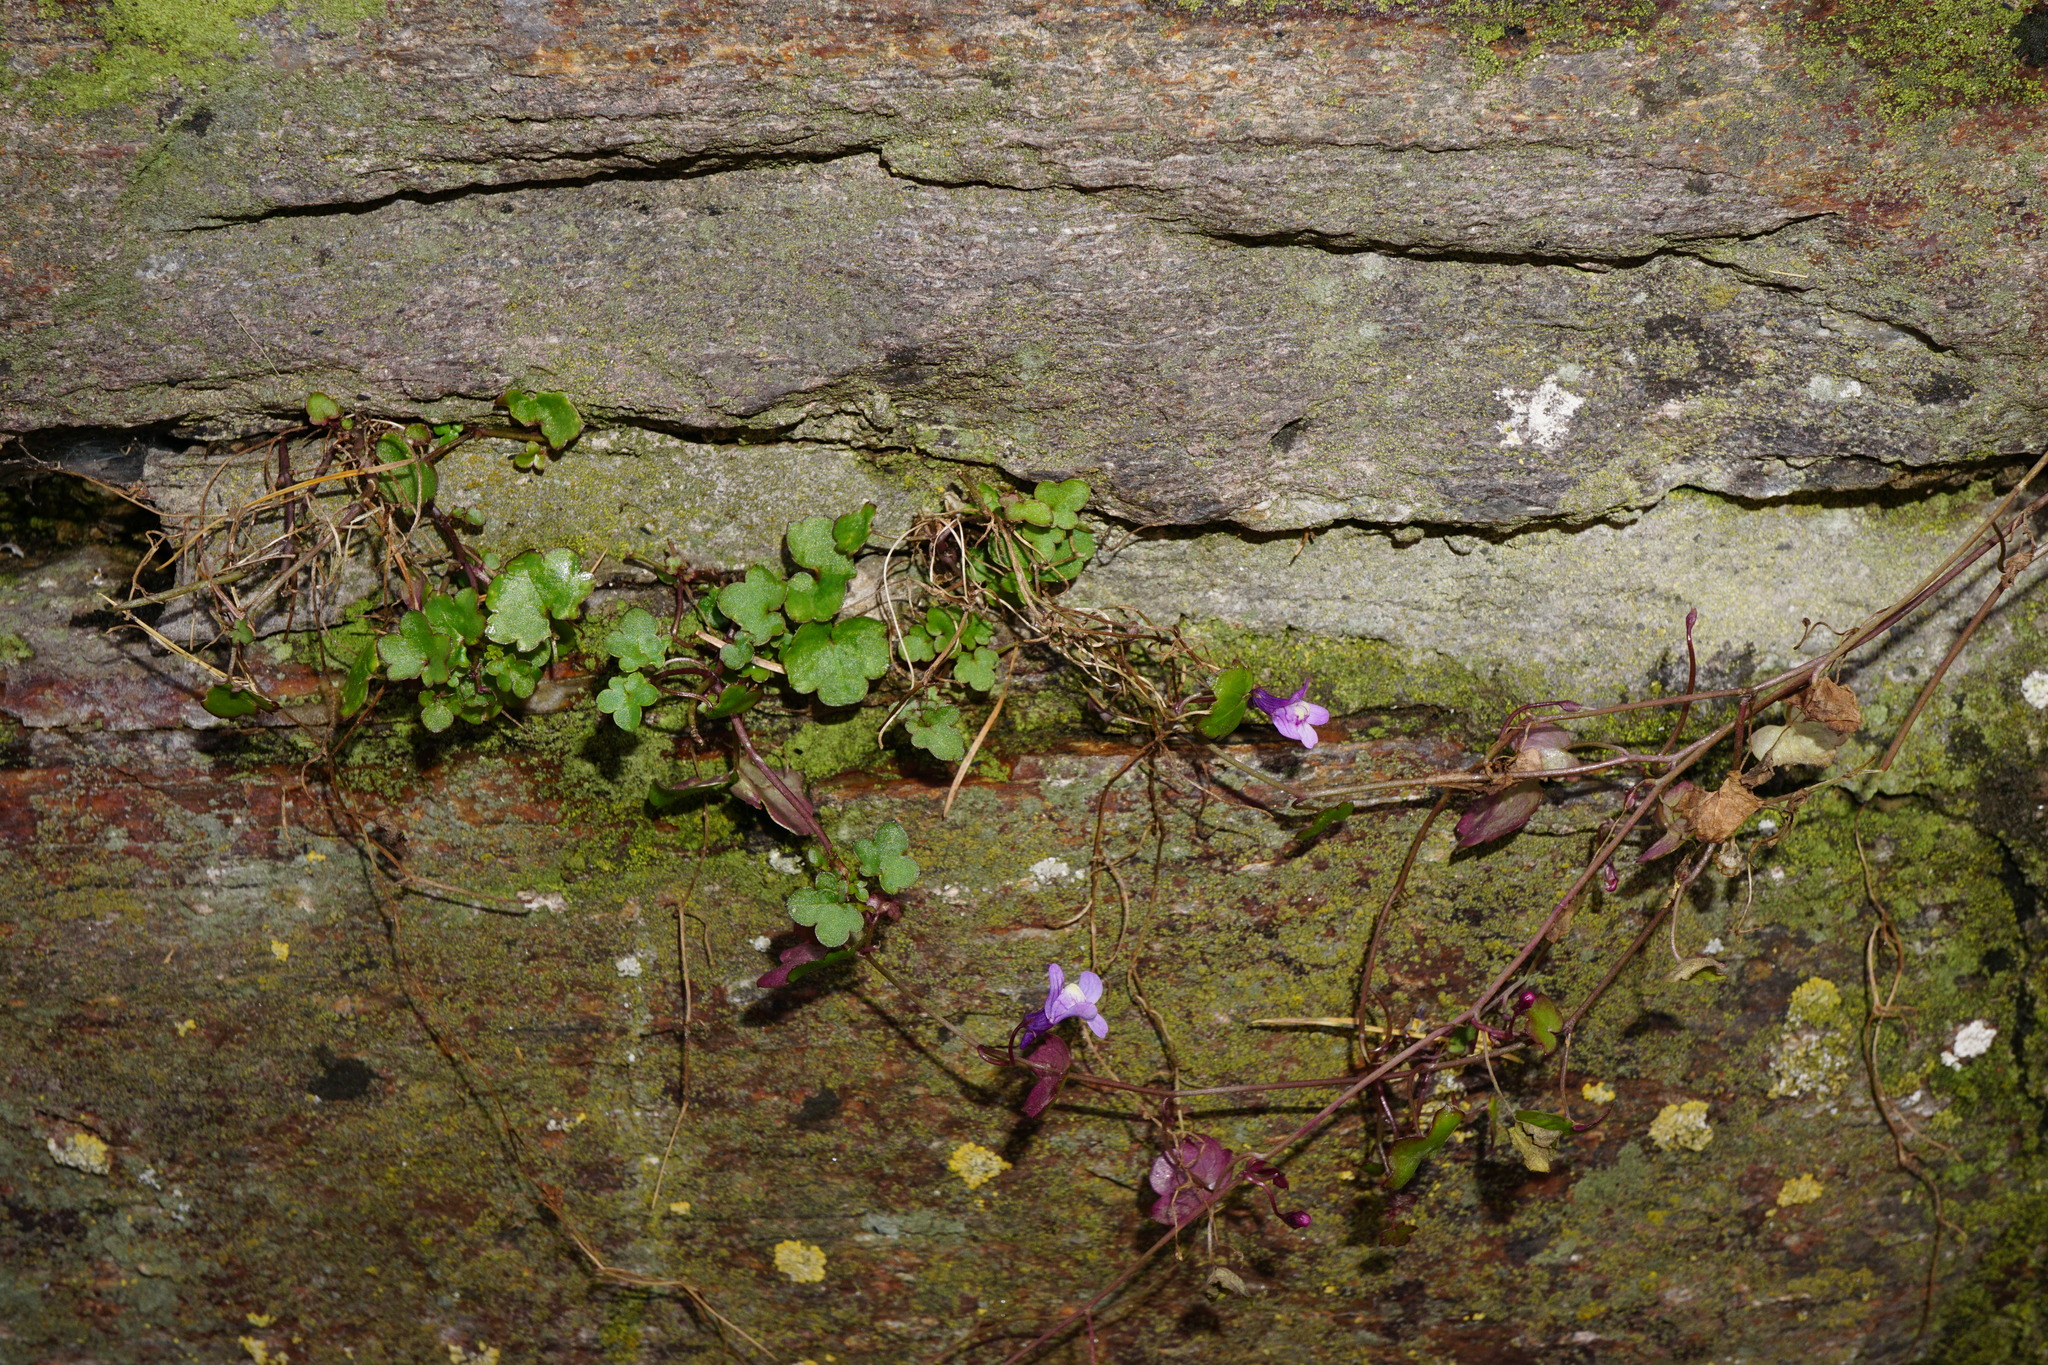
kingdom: Plantae
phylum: Tracheophyta
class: Magnoliopsida
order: Lamiales
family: Plantaginaceae
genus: Cymbalaria
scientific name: Cymbalaria muralis
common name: Ivy-leaved toadflax
